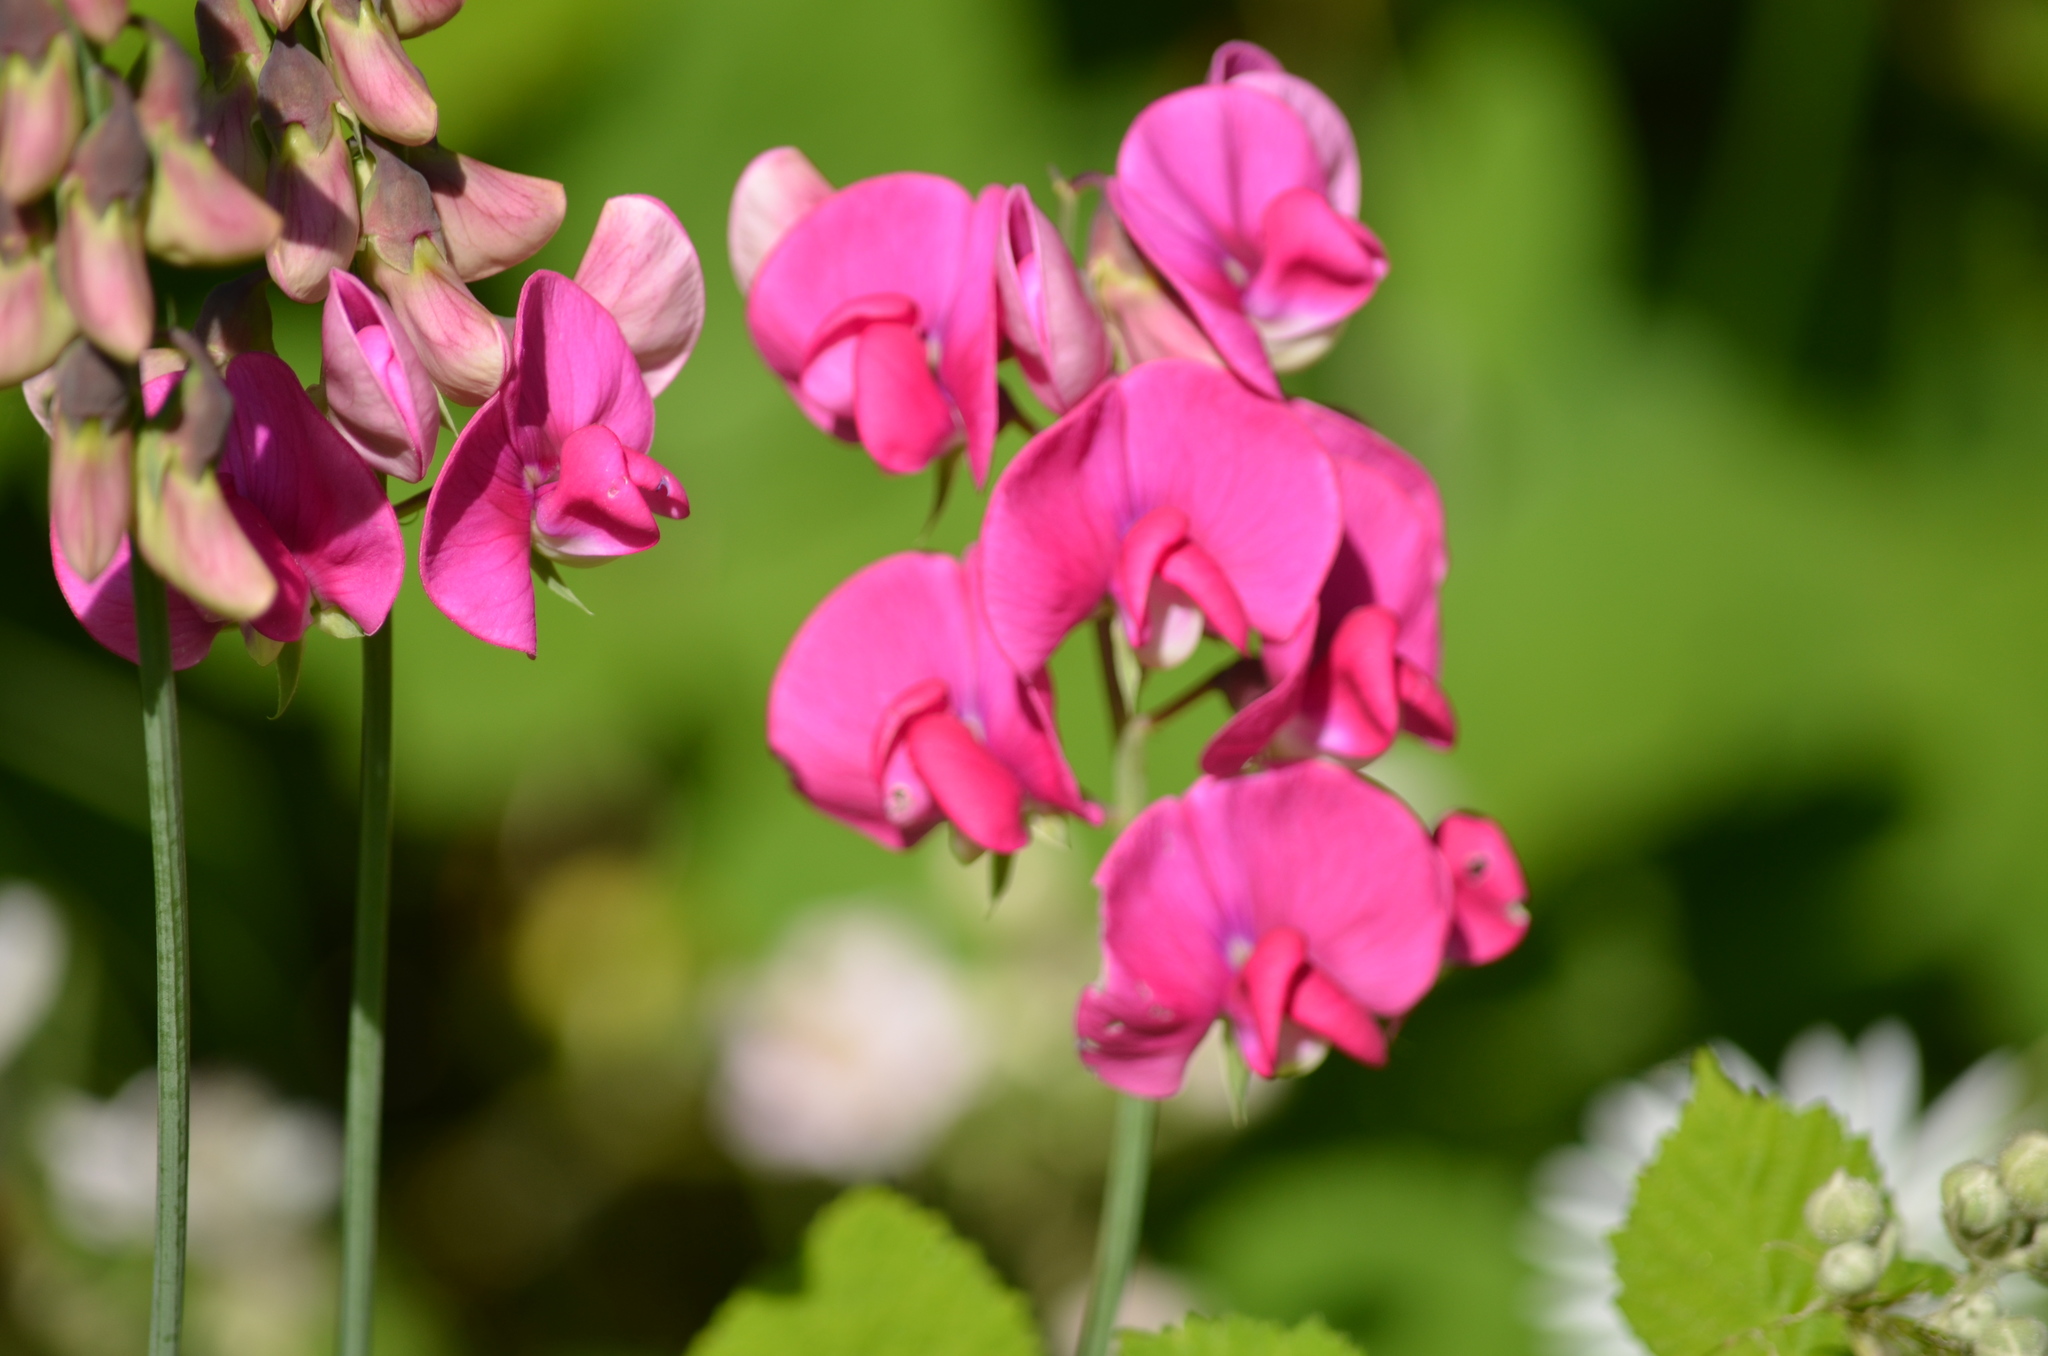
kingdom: Plantae
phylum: Tracheophyta
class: Magnoliopsida
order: Fabales
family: Fabaceae
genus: Lathyrus
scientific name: Lathyrus latifolius
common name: Perennial pea
